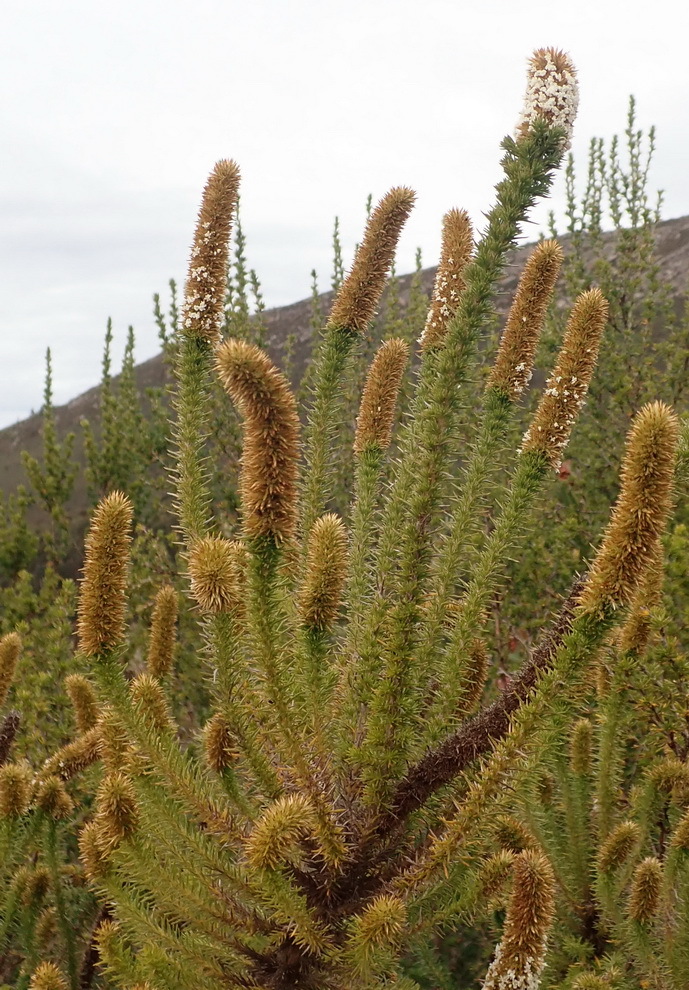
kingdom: Plantae
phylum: Tracheophyta
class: Magnoliopsida
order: Asterales
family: Asteraceae
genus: Stoebe
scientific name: Stoebe alopecuroides
